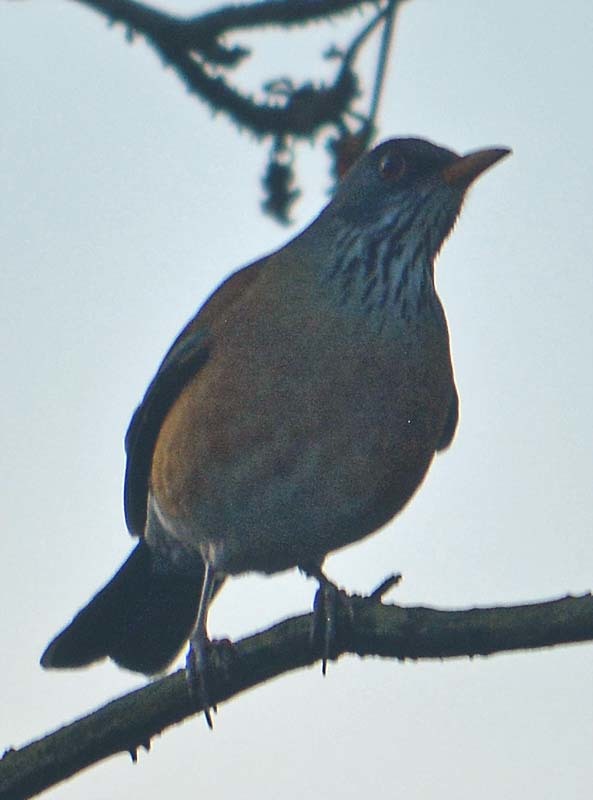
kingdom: Animalia
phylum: Chordata
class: Aves
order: Passeriformes
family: Turdidae
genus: Turdus
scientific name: Turdus rufopalliatus
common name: Rufous-backed robin
